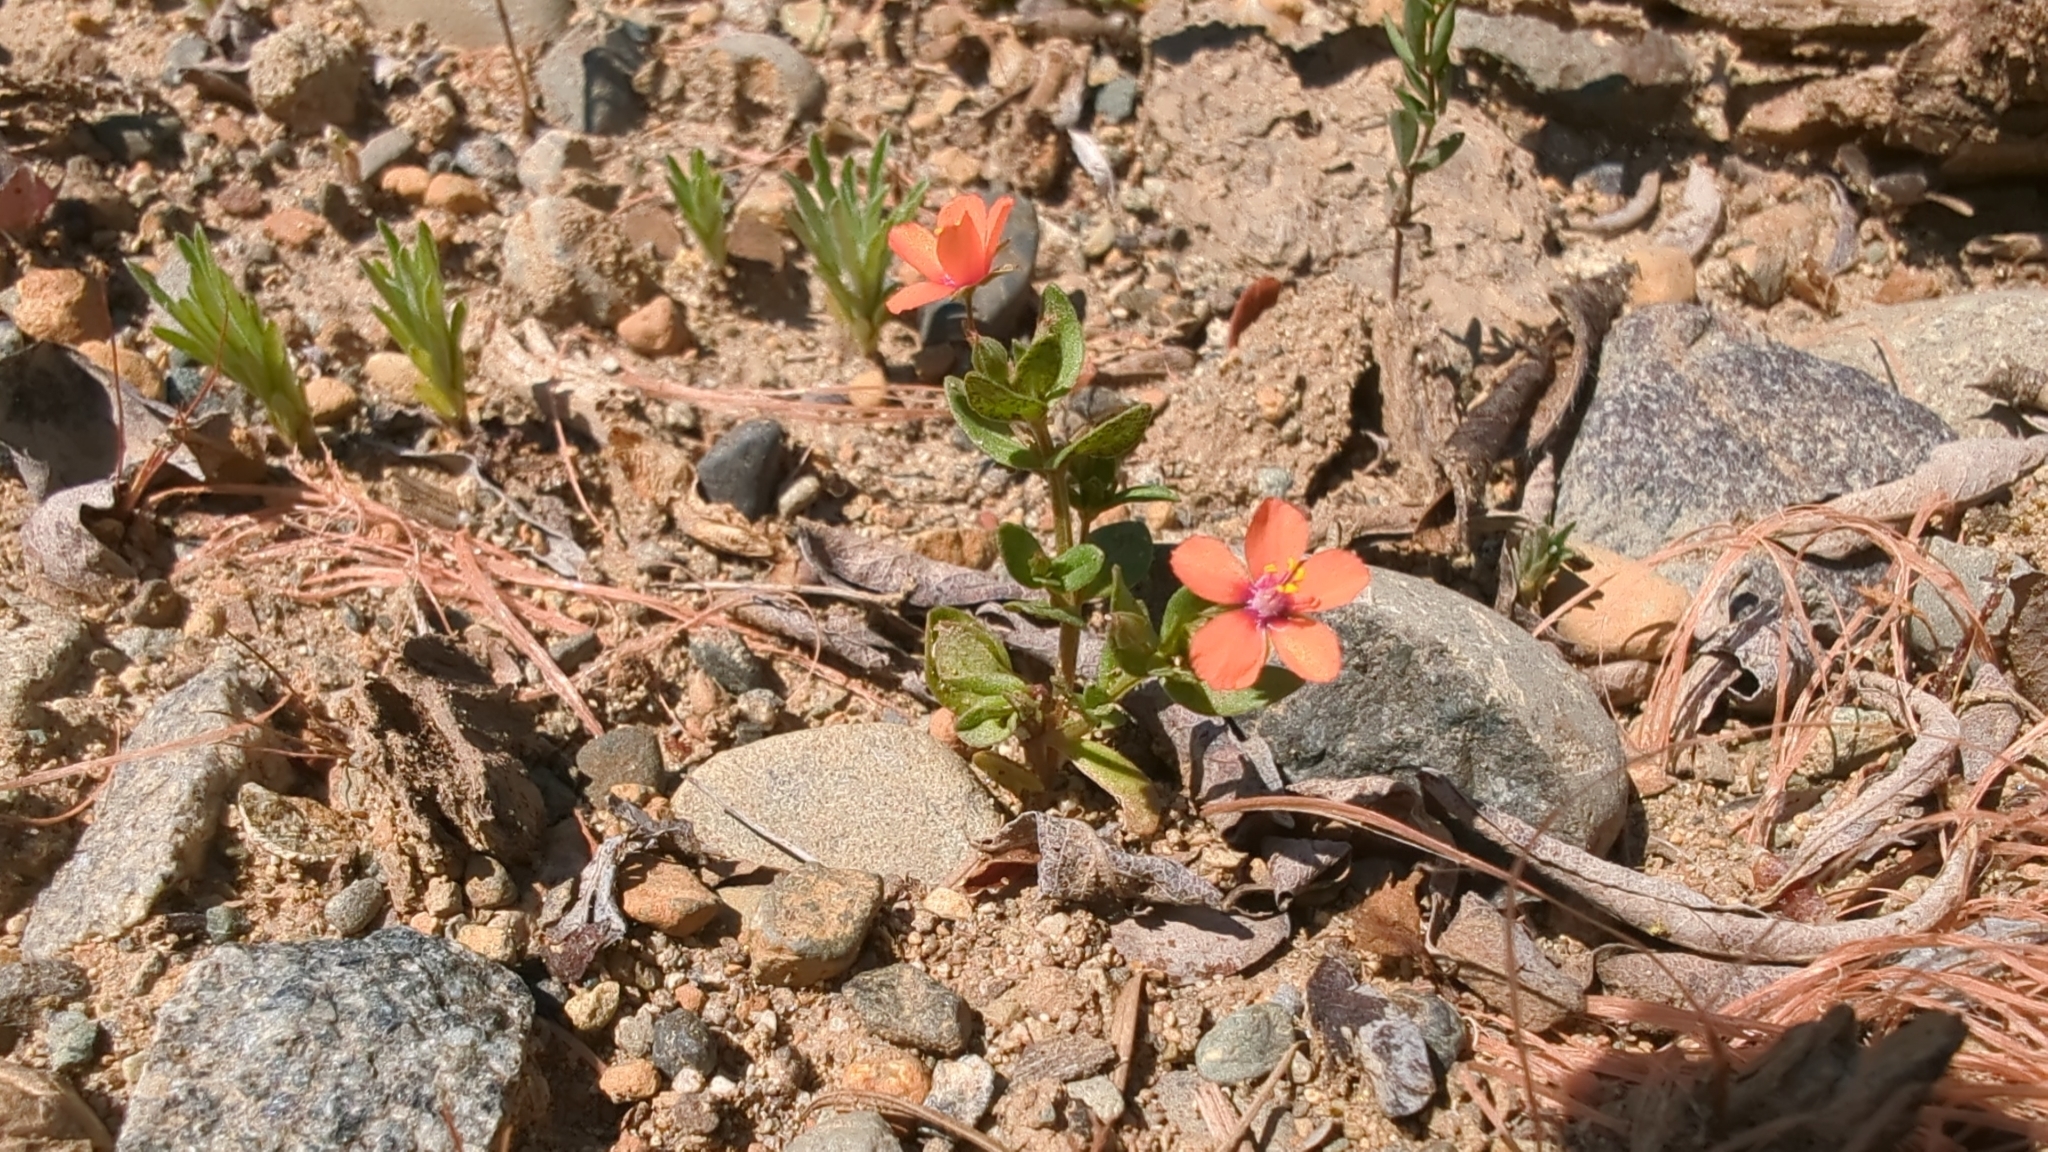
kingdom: Plantae
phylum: Tracheophyta
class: Magnoliopsida
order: Ericales
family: Primulaceae
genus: Lysimachia
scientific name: Lysimachia arvensis
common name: Scarlet pimpernel
